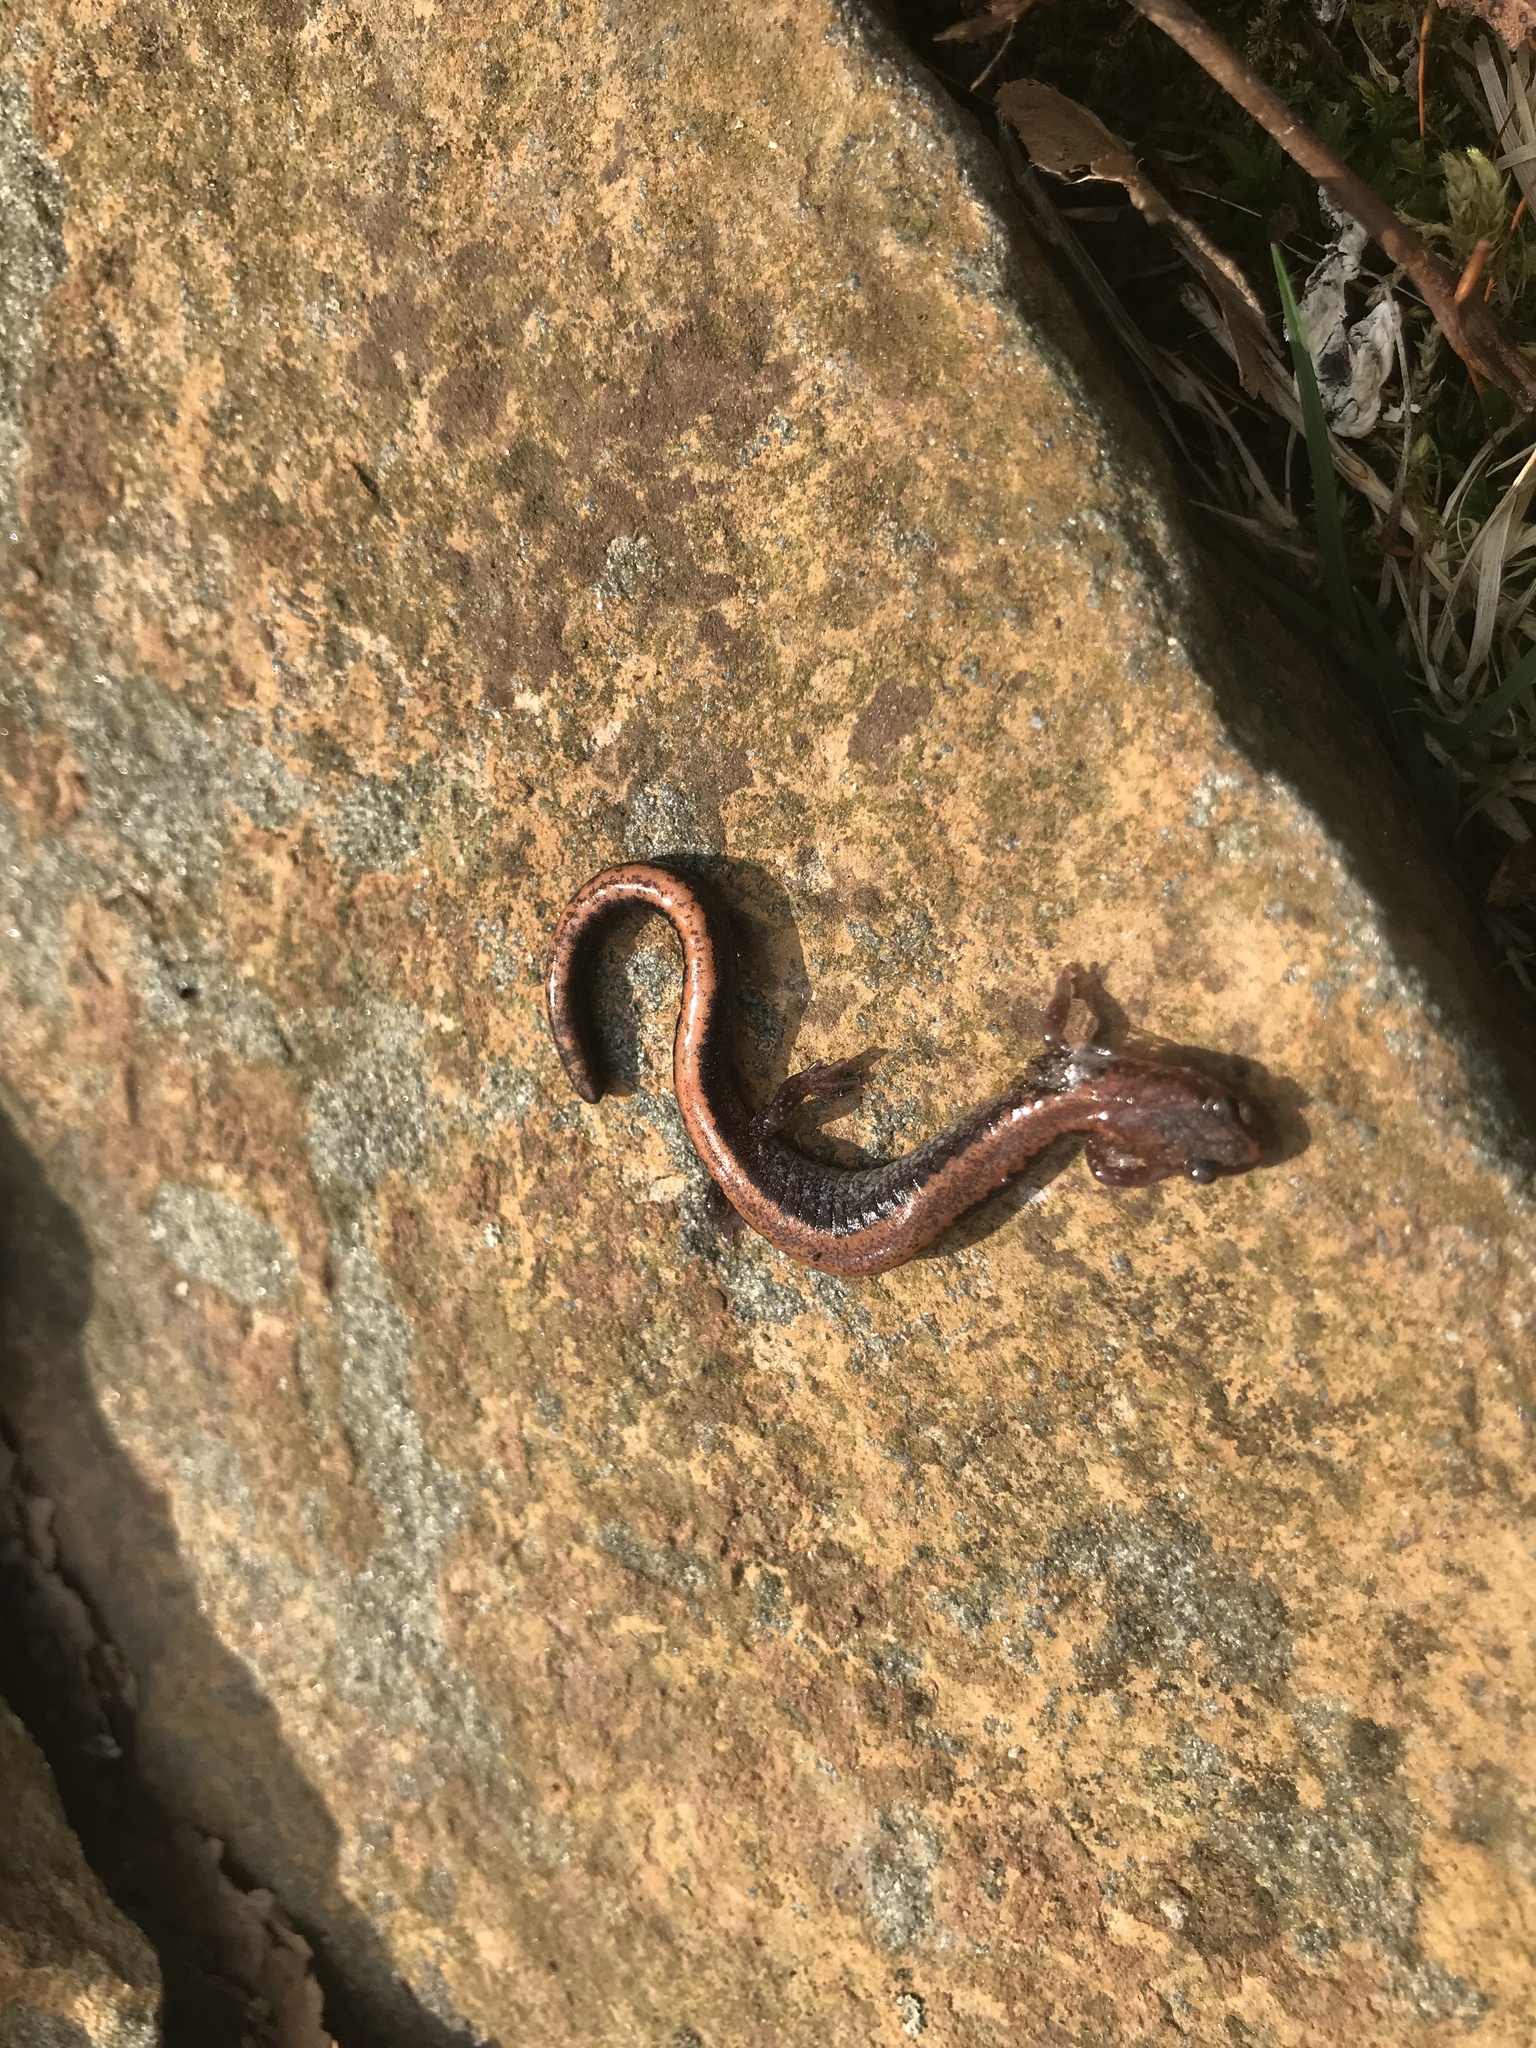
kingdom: Animalia
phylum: Chordata
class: Amphibia
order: Caudata
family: Plethodontidae
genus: Plethodon
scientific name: Plethodon cinereus
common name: Redback salamander
